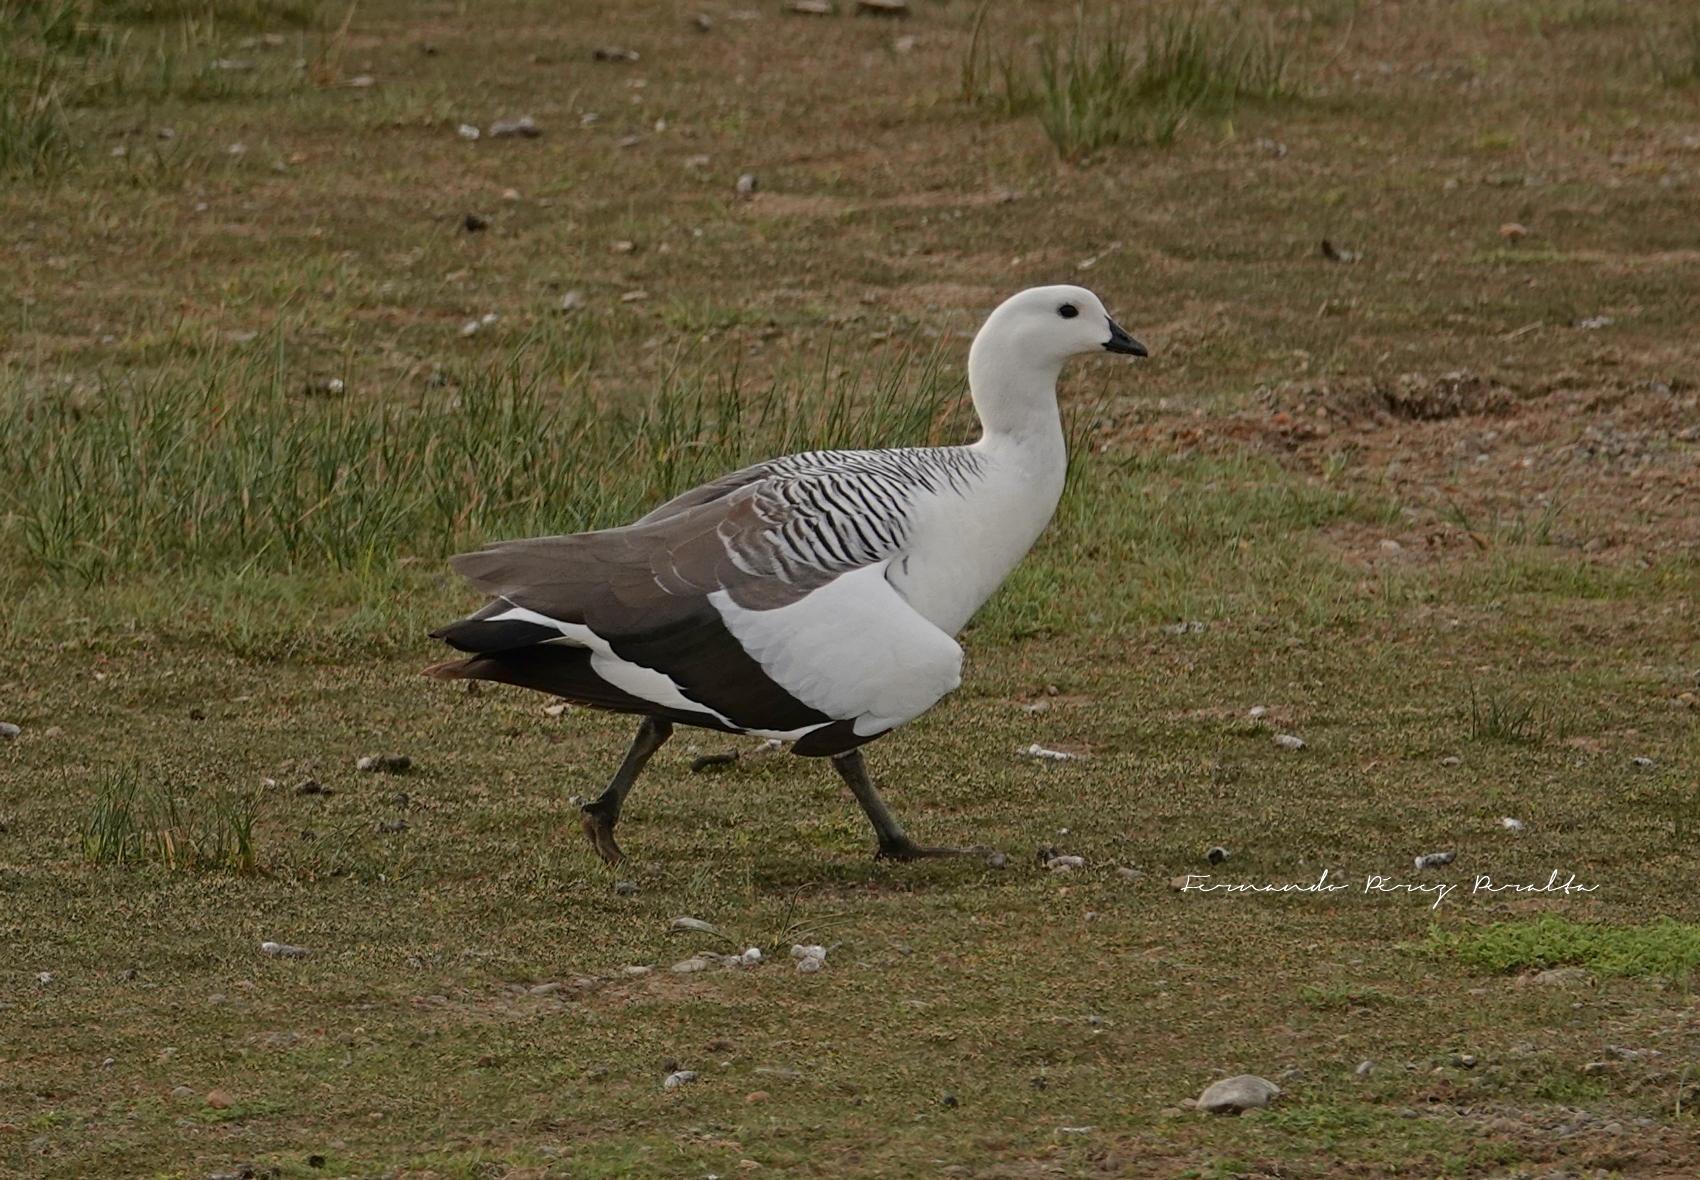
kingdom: Animalia
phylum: Chordata
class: Aves
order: Anseriformes
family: Anatidae
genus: Chloephaga
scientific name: Chloephaga picta
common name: Upland goose
